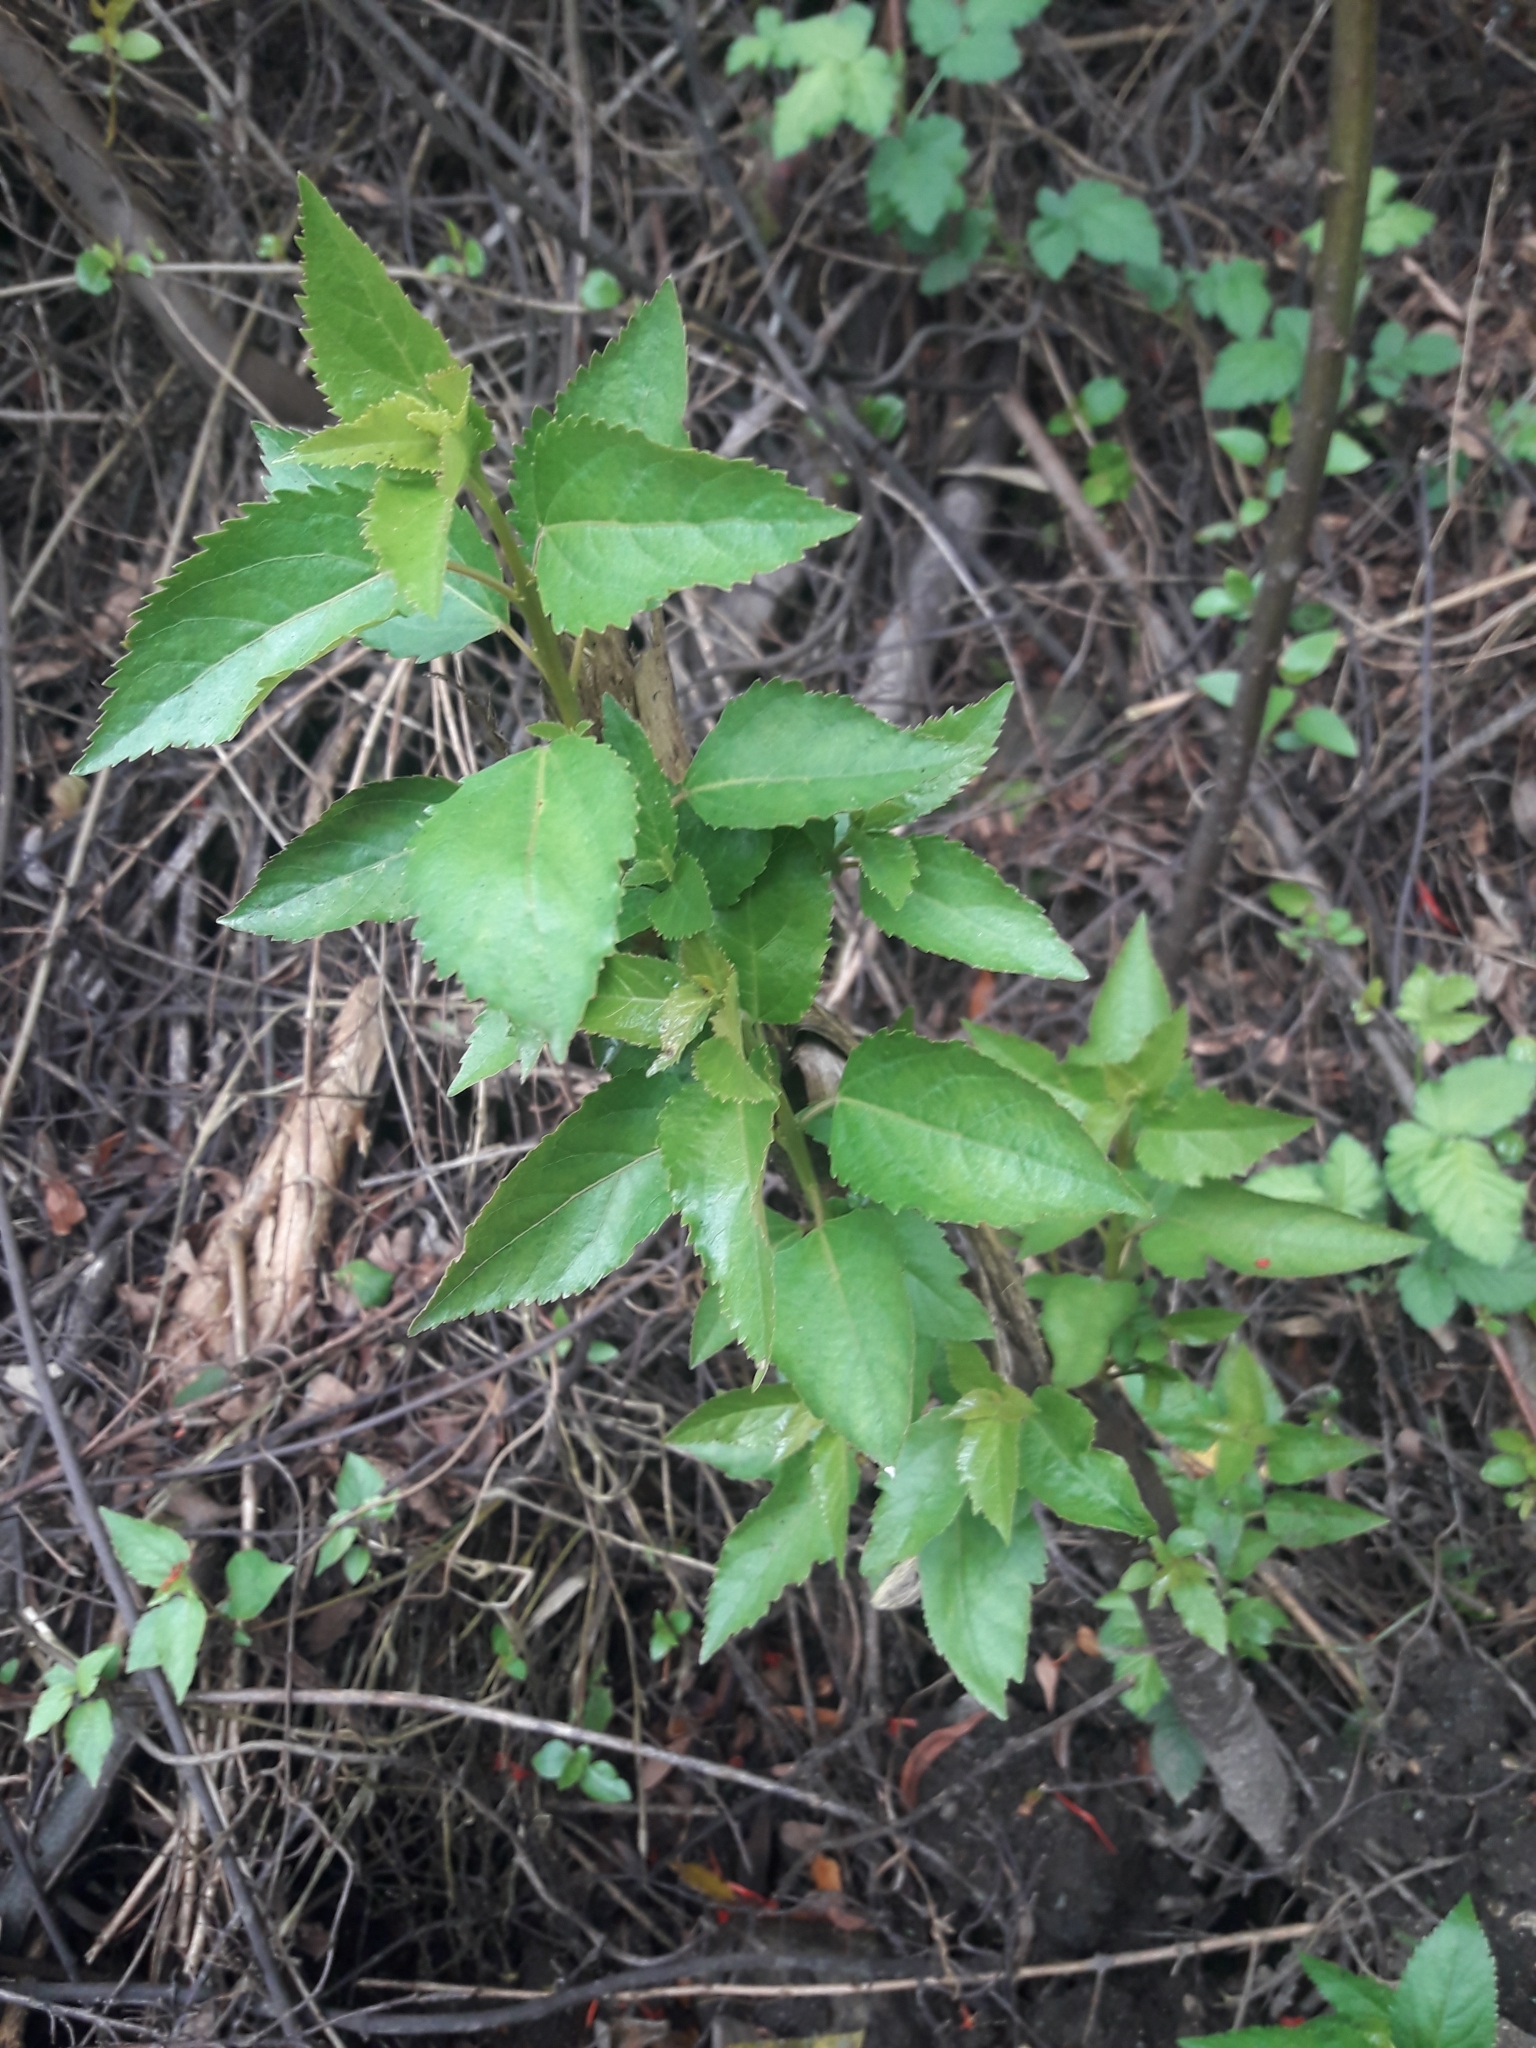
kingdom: Plantae
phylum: Tracheophyta
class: Magnoliopsida
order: Oxalidales
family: Elaeocarpaceae
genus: Aristotelia
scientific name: Aristotelia chilensis
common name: Maquei
